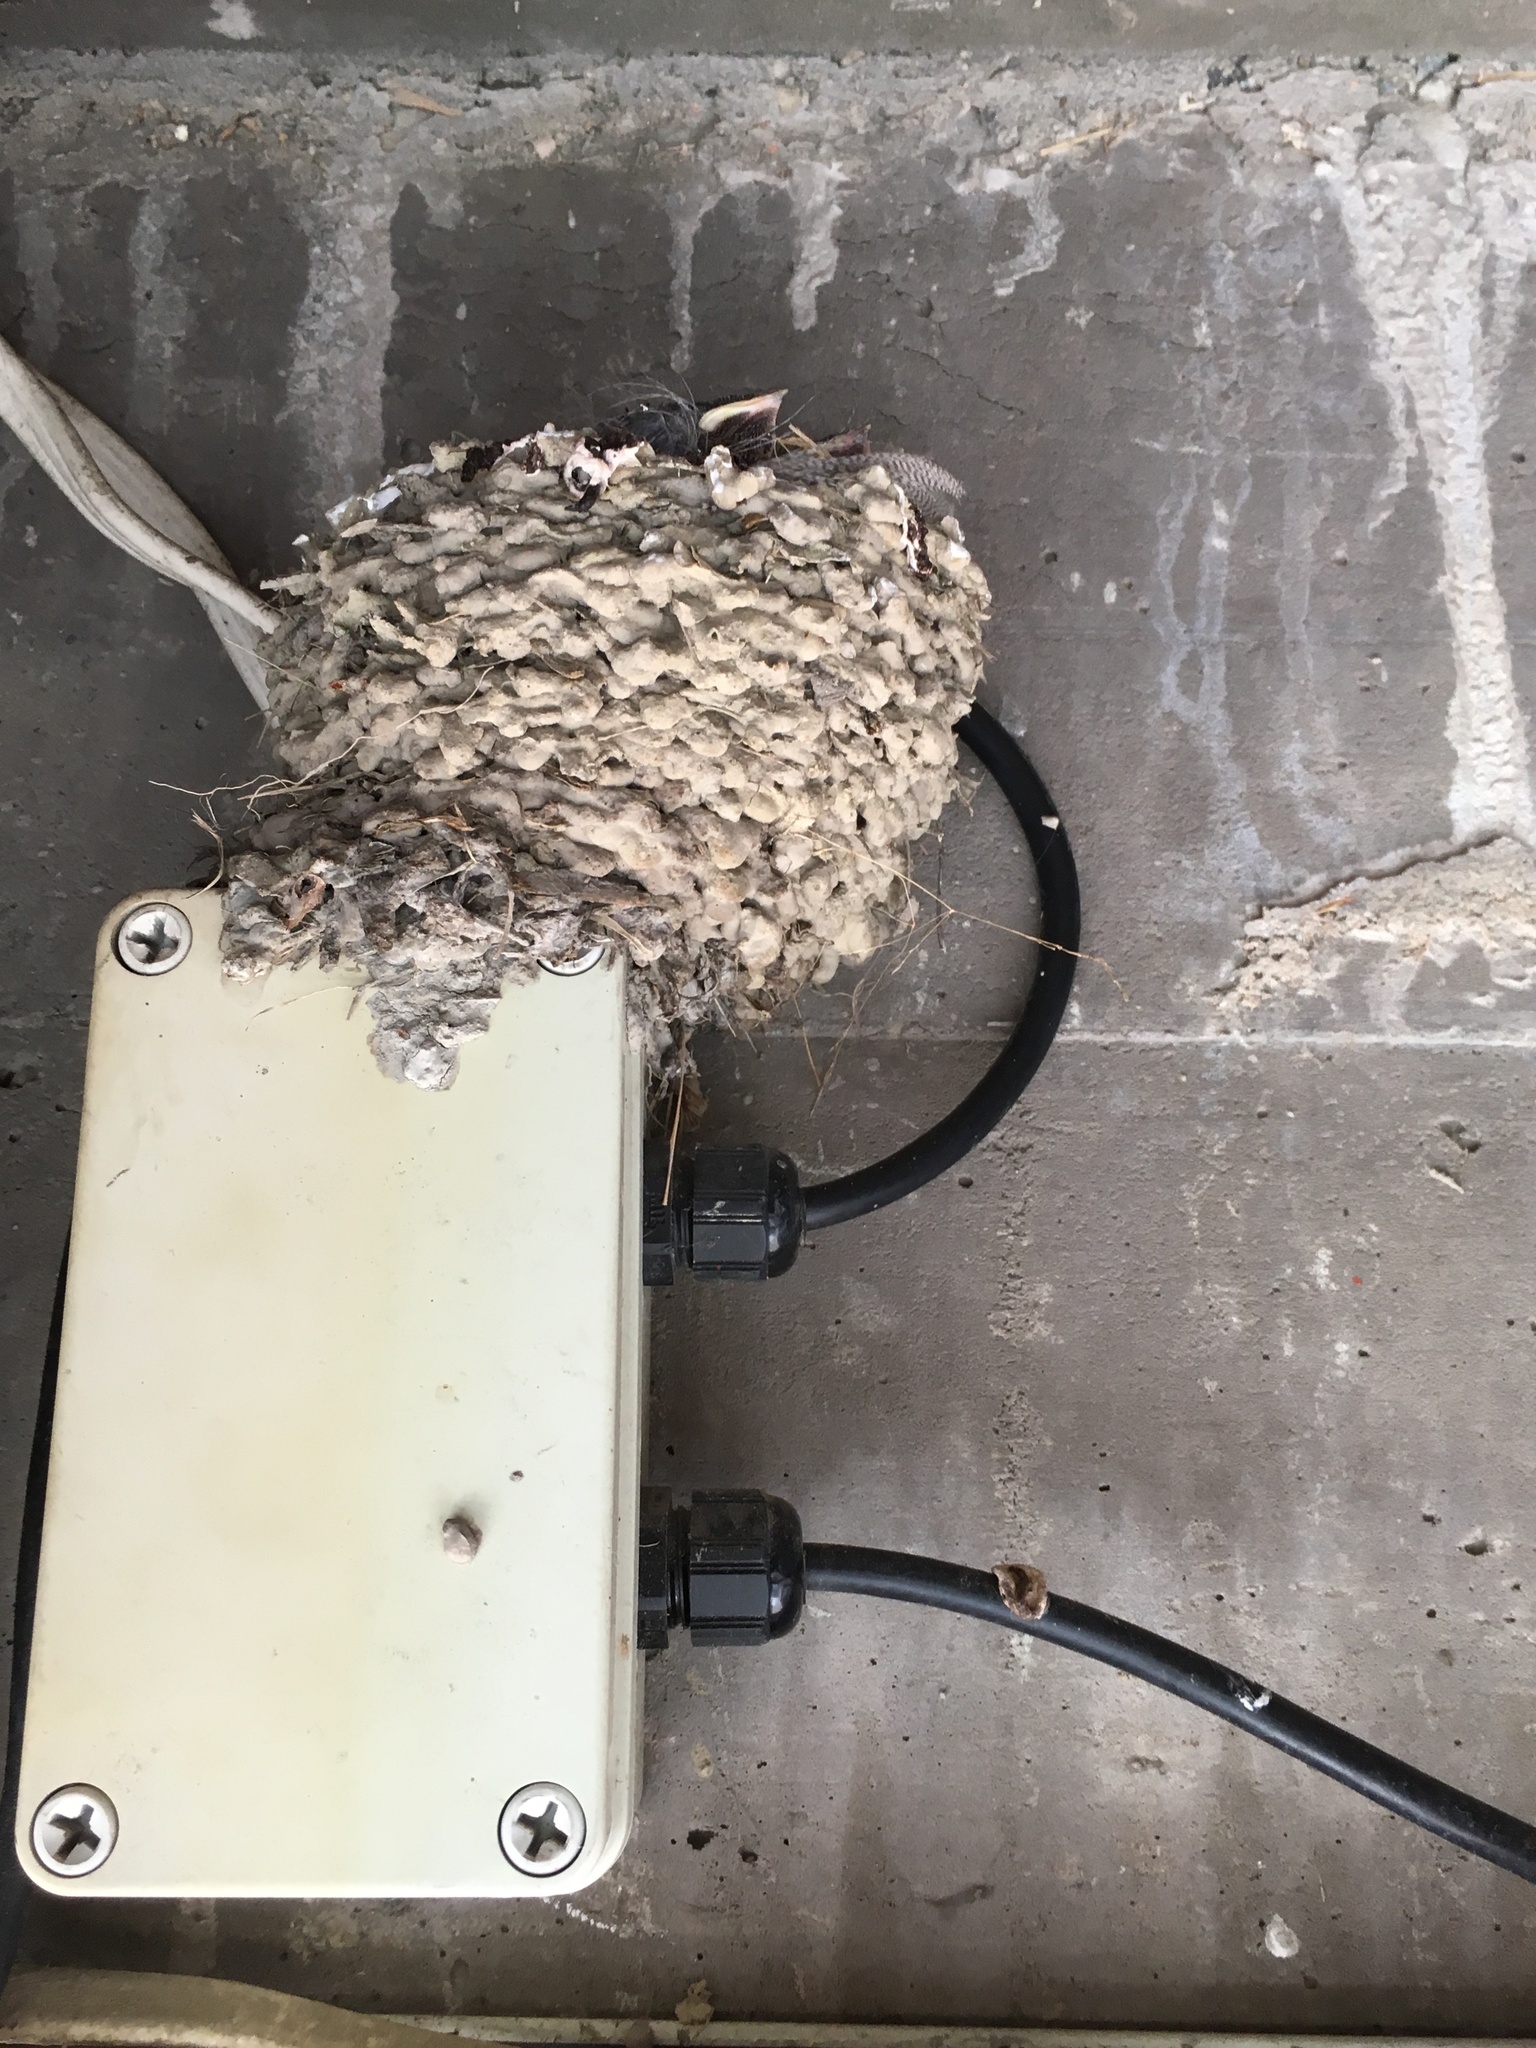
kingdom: Animalia
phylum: Chordata
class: Aves
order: Passeriformes
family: Hirundinidae
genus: Hirundo
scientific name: Hirundo neoxena
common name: Welcome swallow
